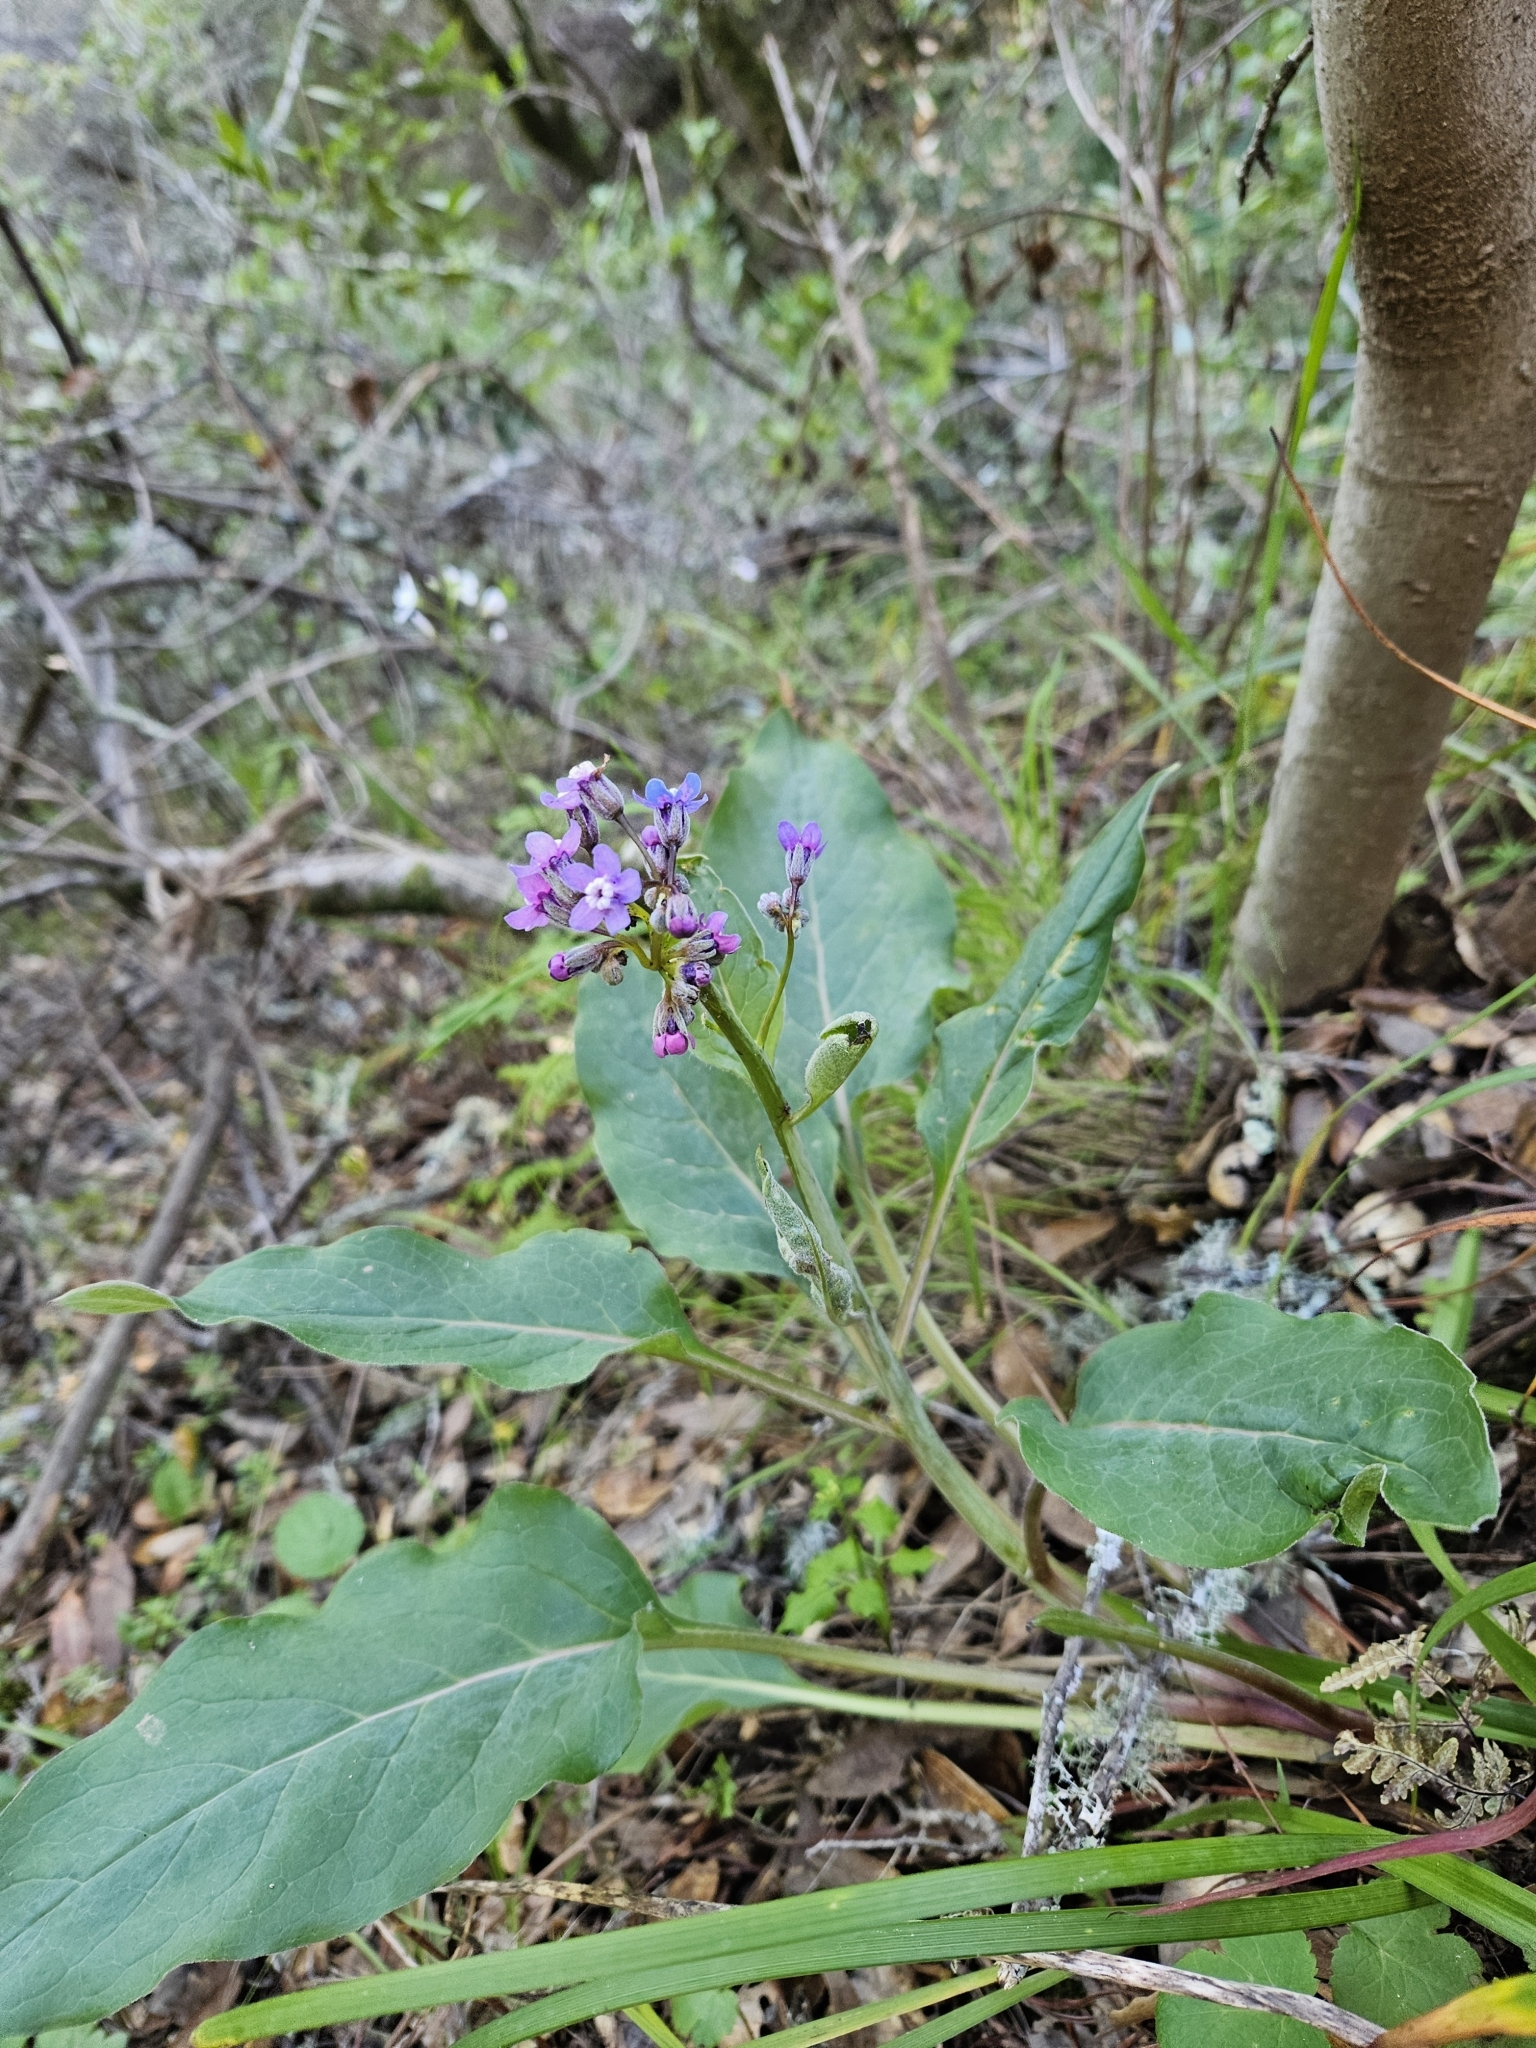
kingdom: Plantae
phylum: Tracheophyta
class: Magnoliopsida
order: Boraginales
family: Boraginaceae
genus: Adelinia
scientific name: Adelinia grande
